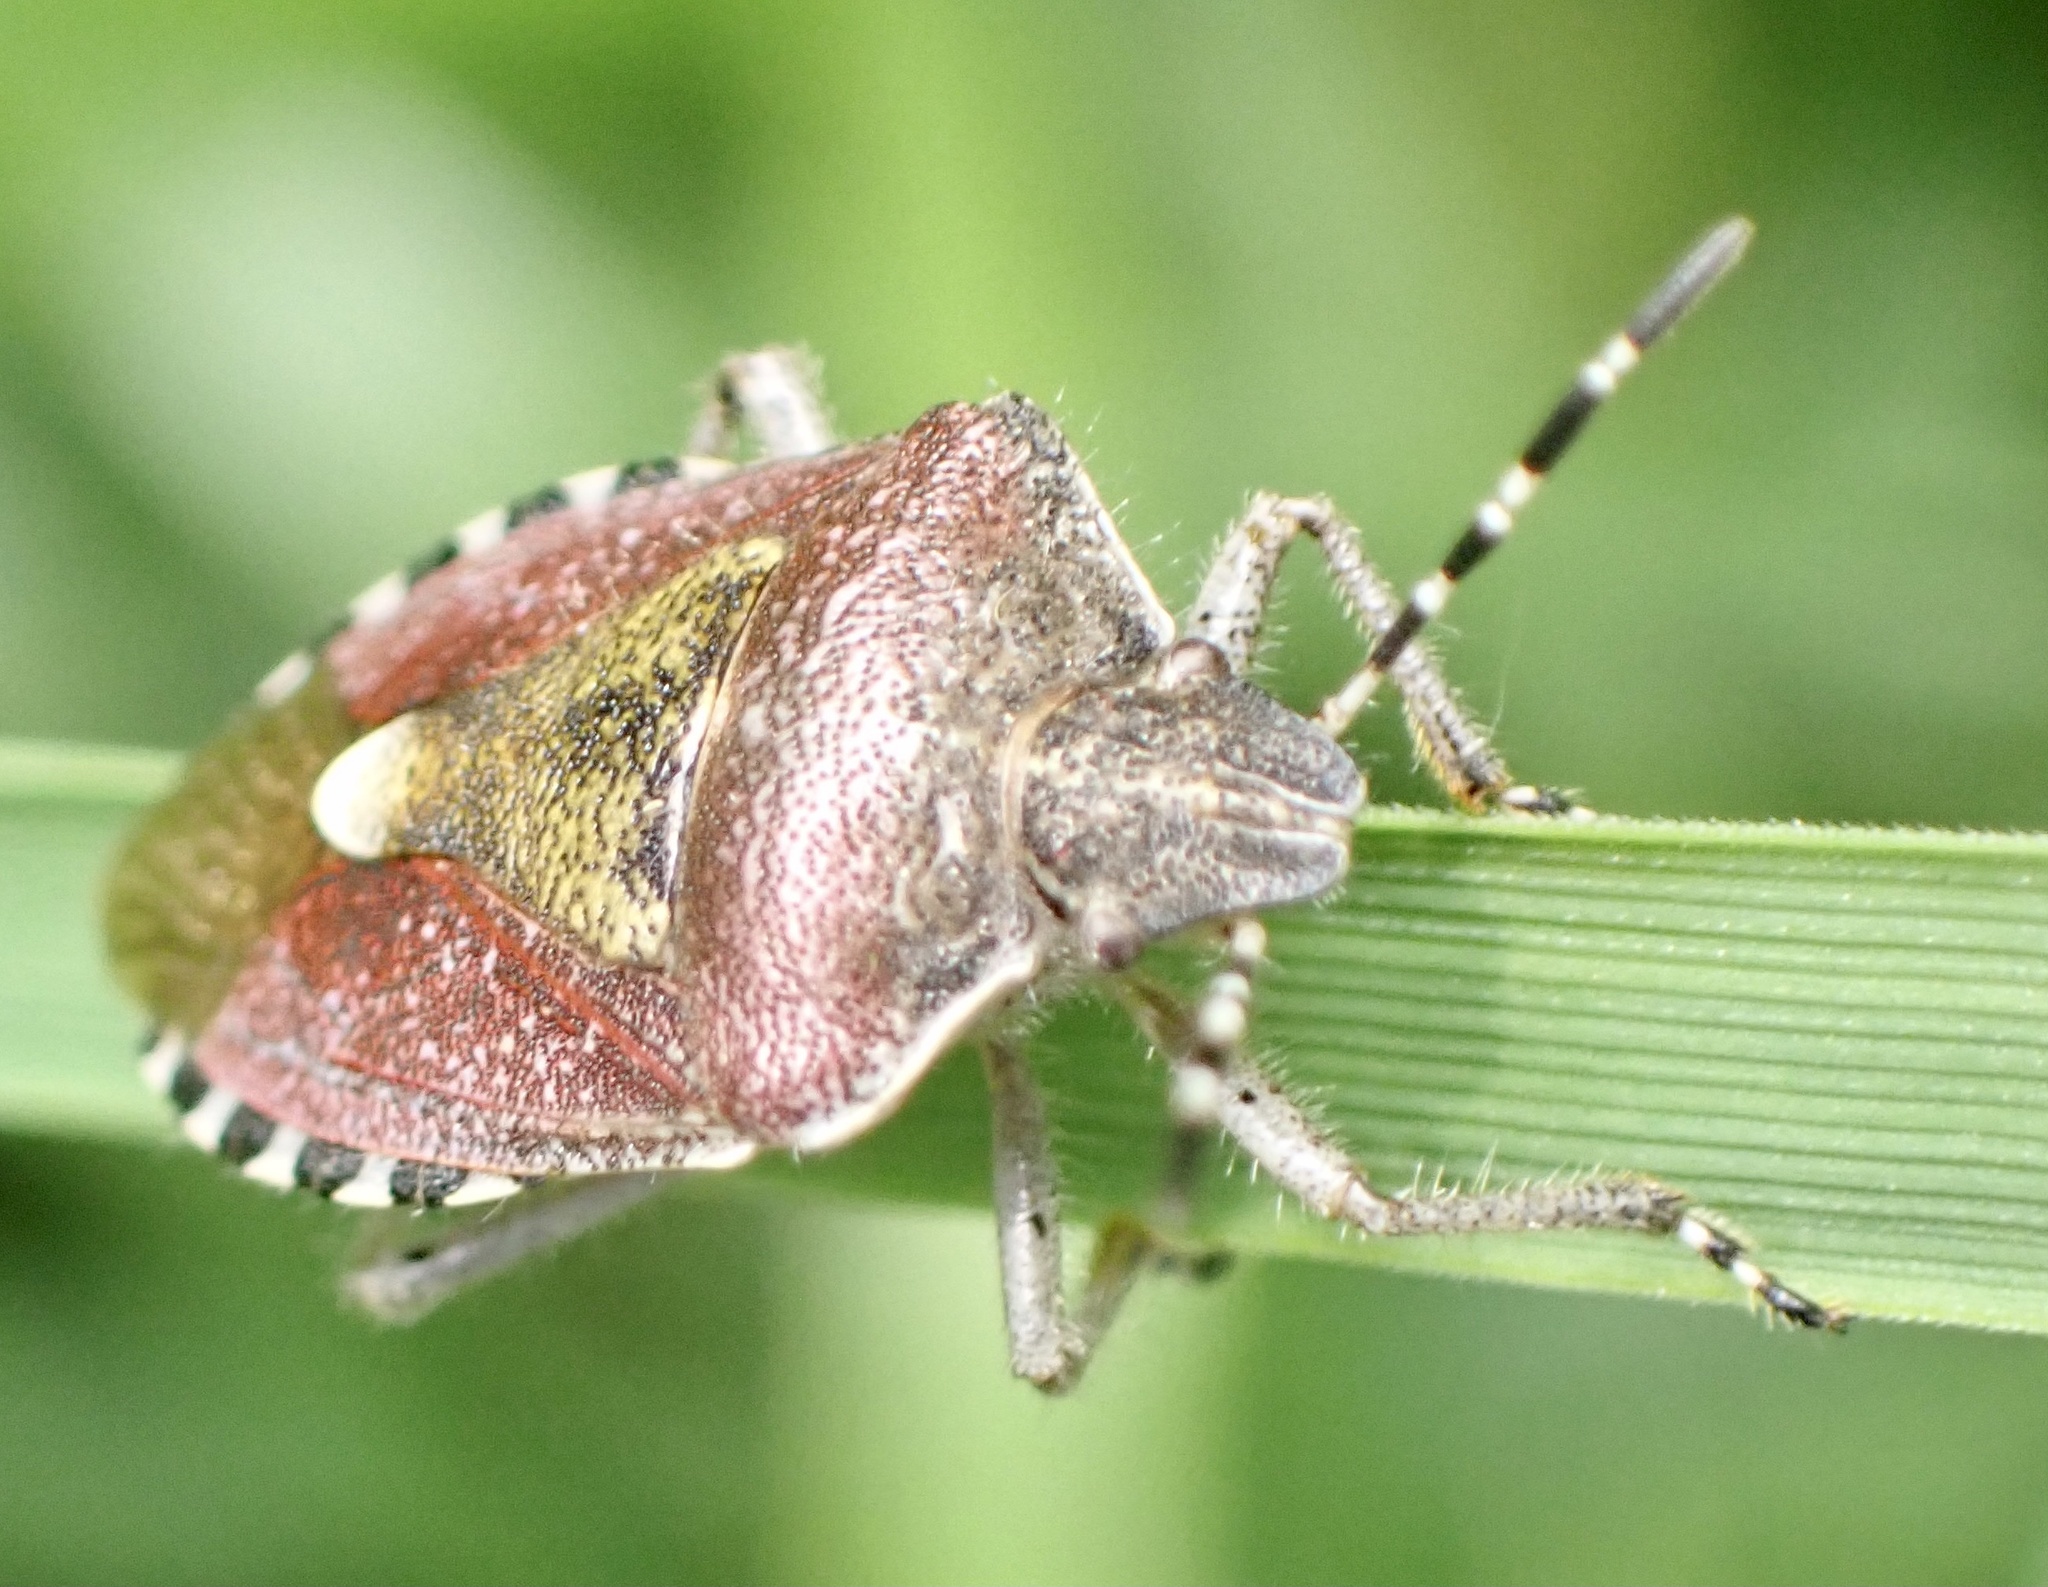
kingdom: Animalia
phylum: Arthropoda
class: Insecta
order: Hemiptera
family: Pentatomidae
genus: Dolycoris
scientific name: Dolycoris baccarum
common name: Sloe bug
